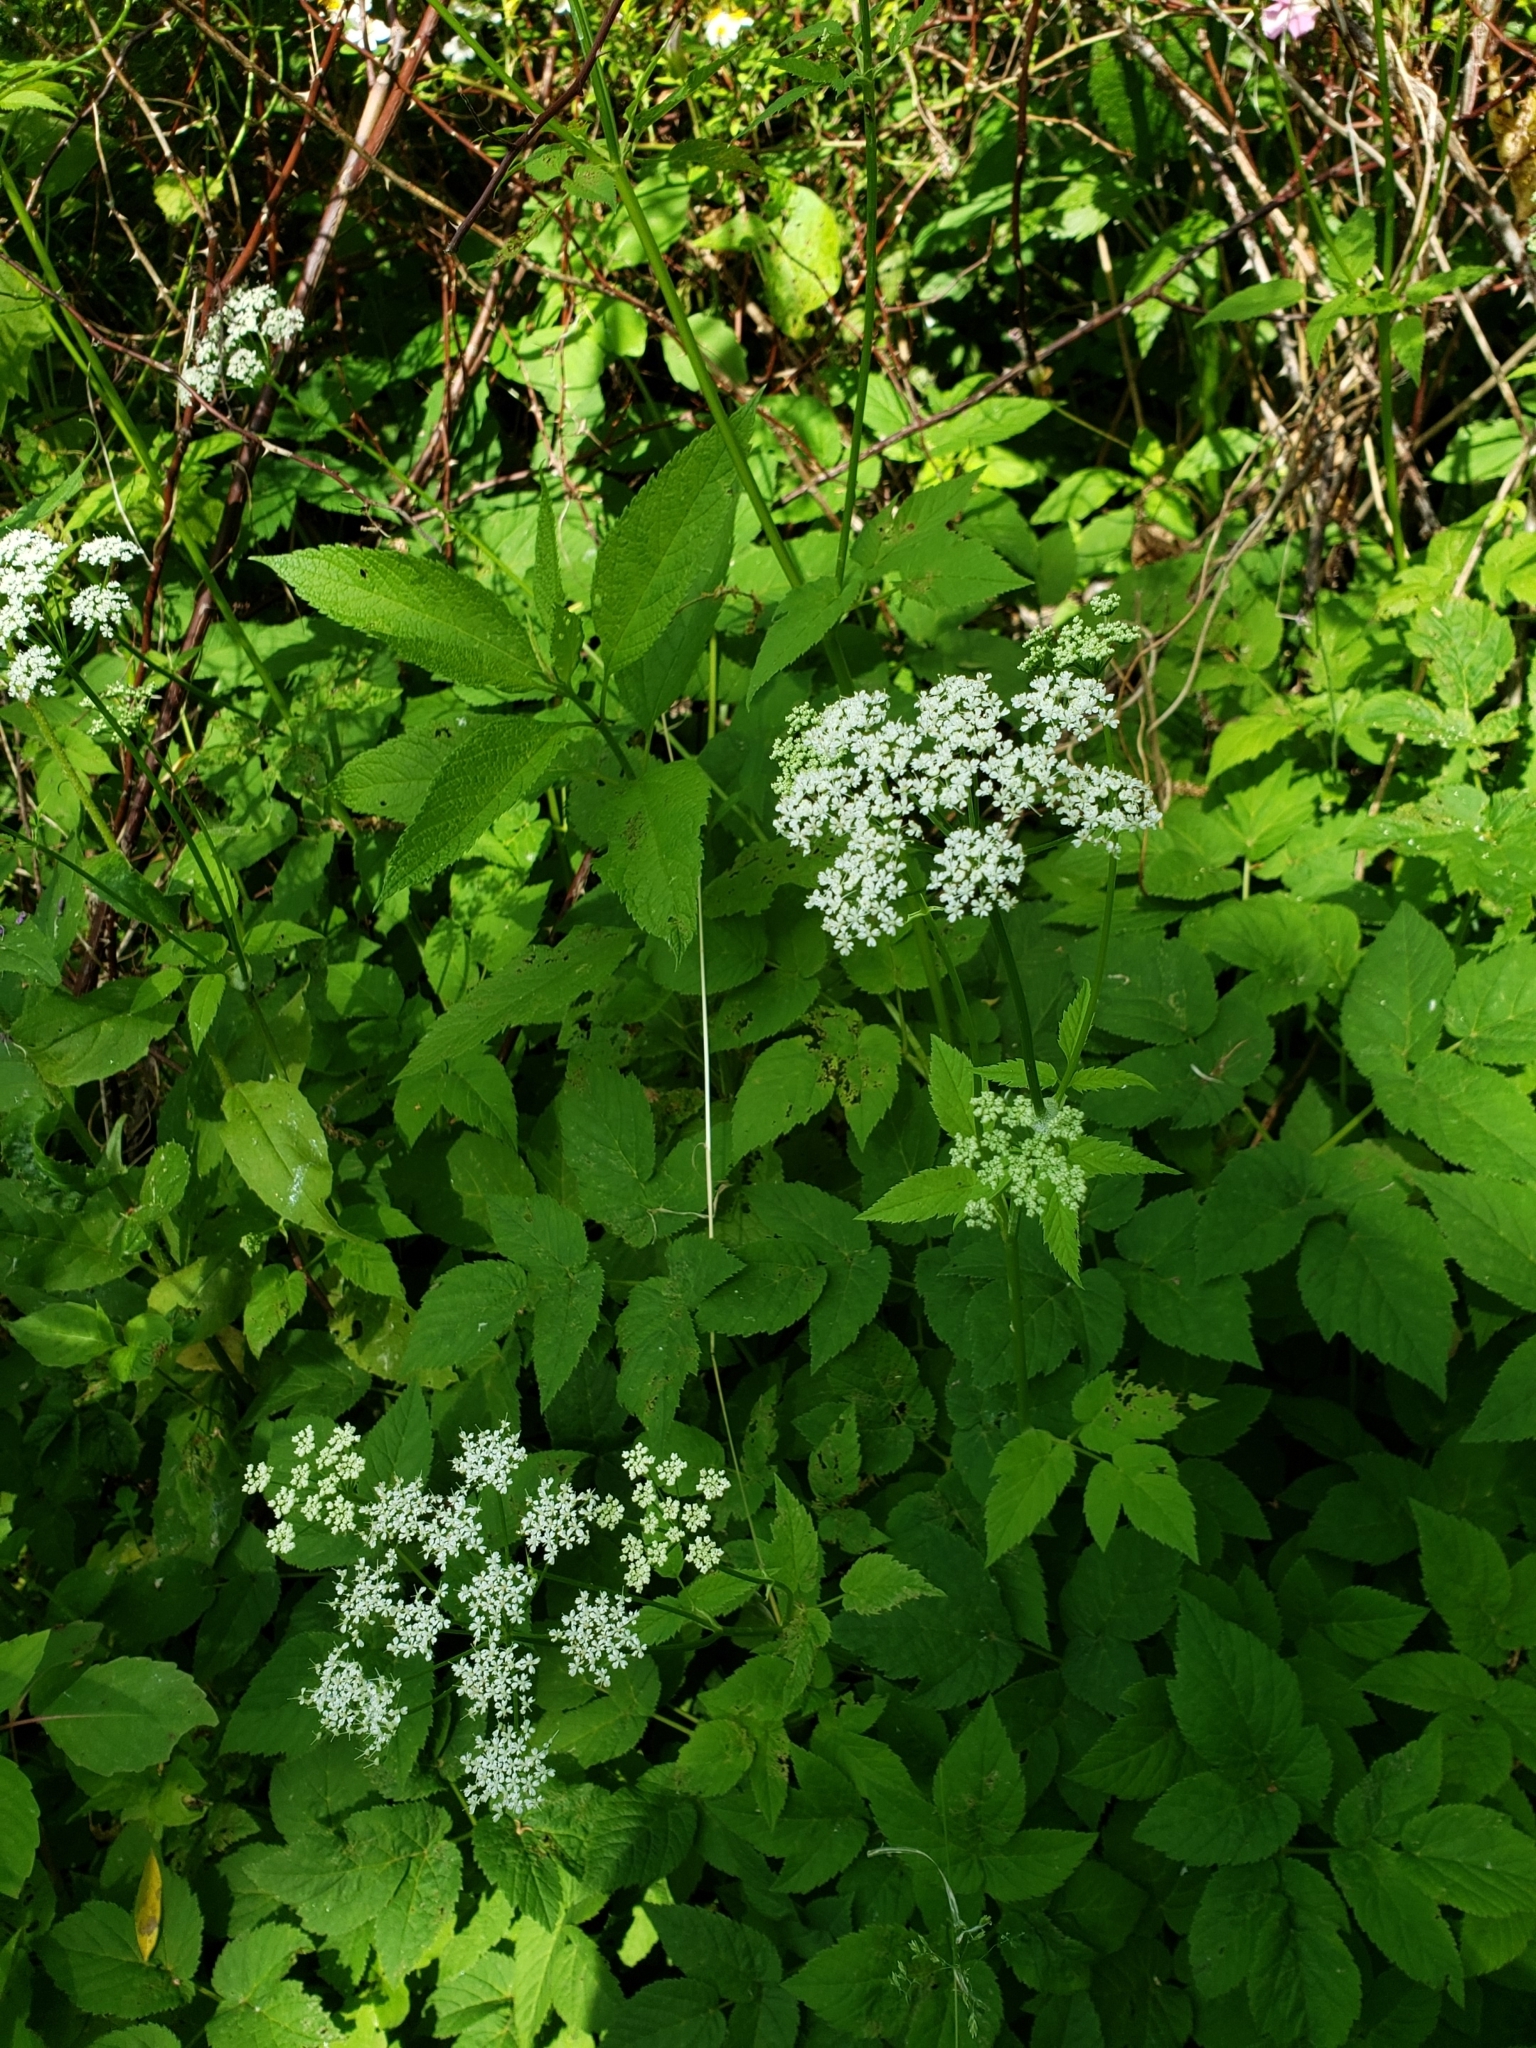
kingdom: Plantae
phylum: Tracheophyta
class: Magnoliopsida
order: Apiales
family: Apiaceae
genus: Aegopodium
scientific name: Aegopodium podagraria
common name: Ground-elder
